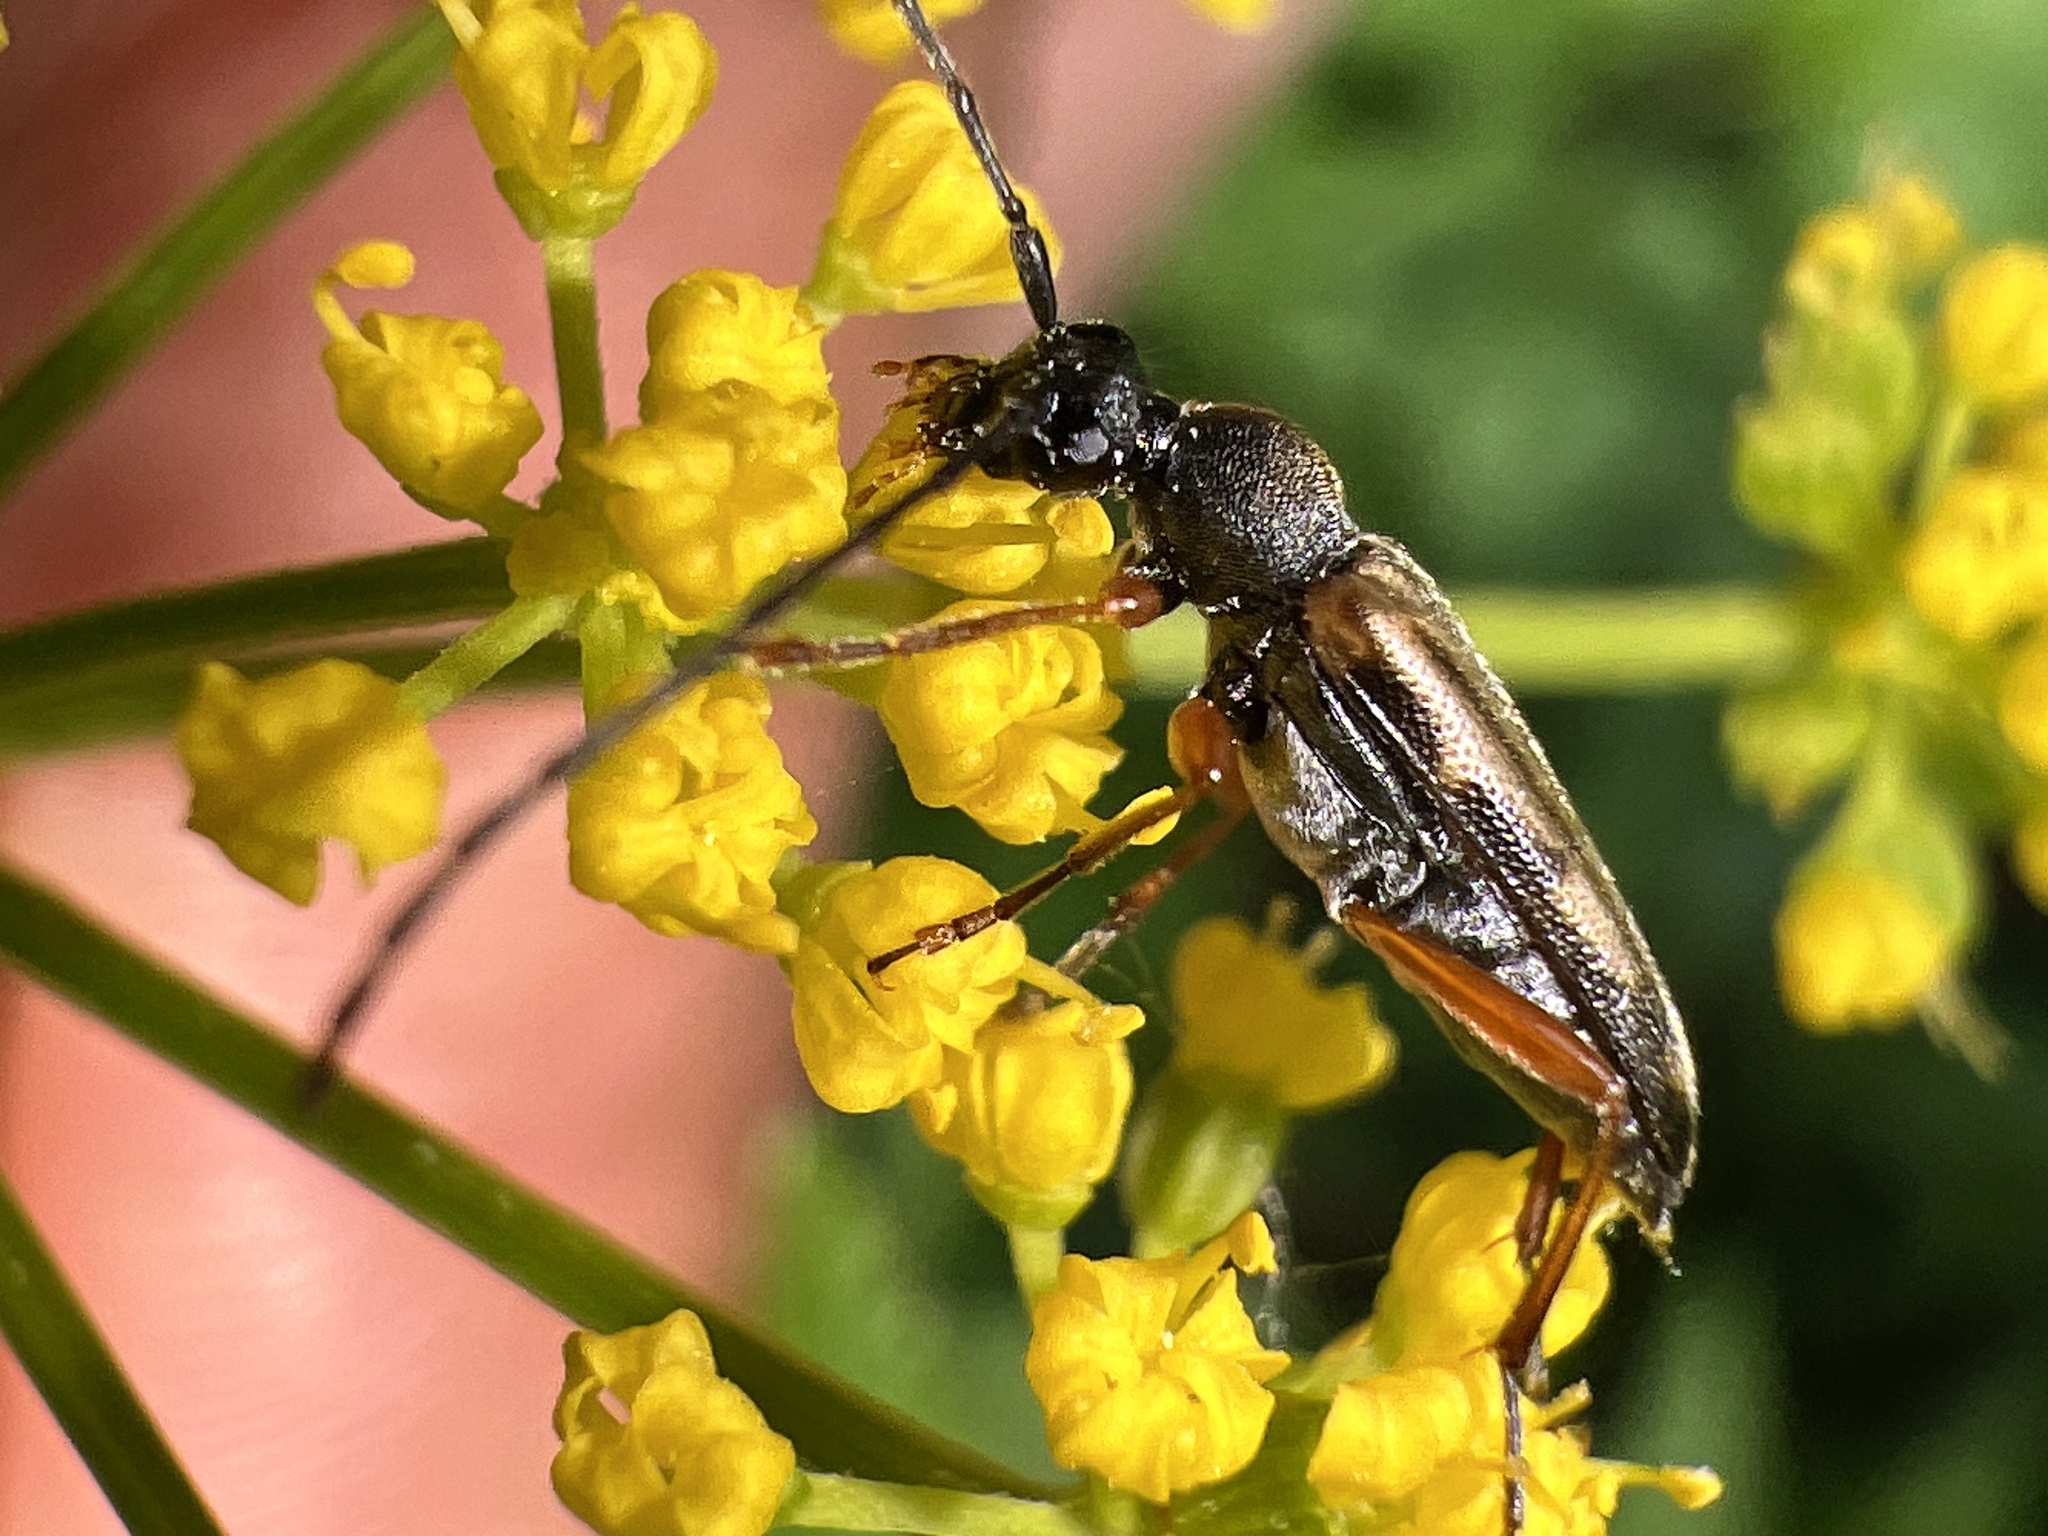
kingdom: Animalia
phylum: Arthropoda
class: Insecta
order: Coleoptera
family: Cerambycidae
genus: Analeptura
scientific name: Analeptura lineola
